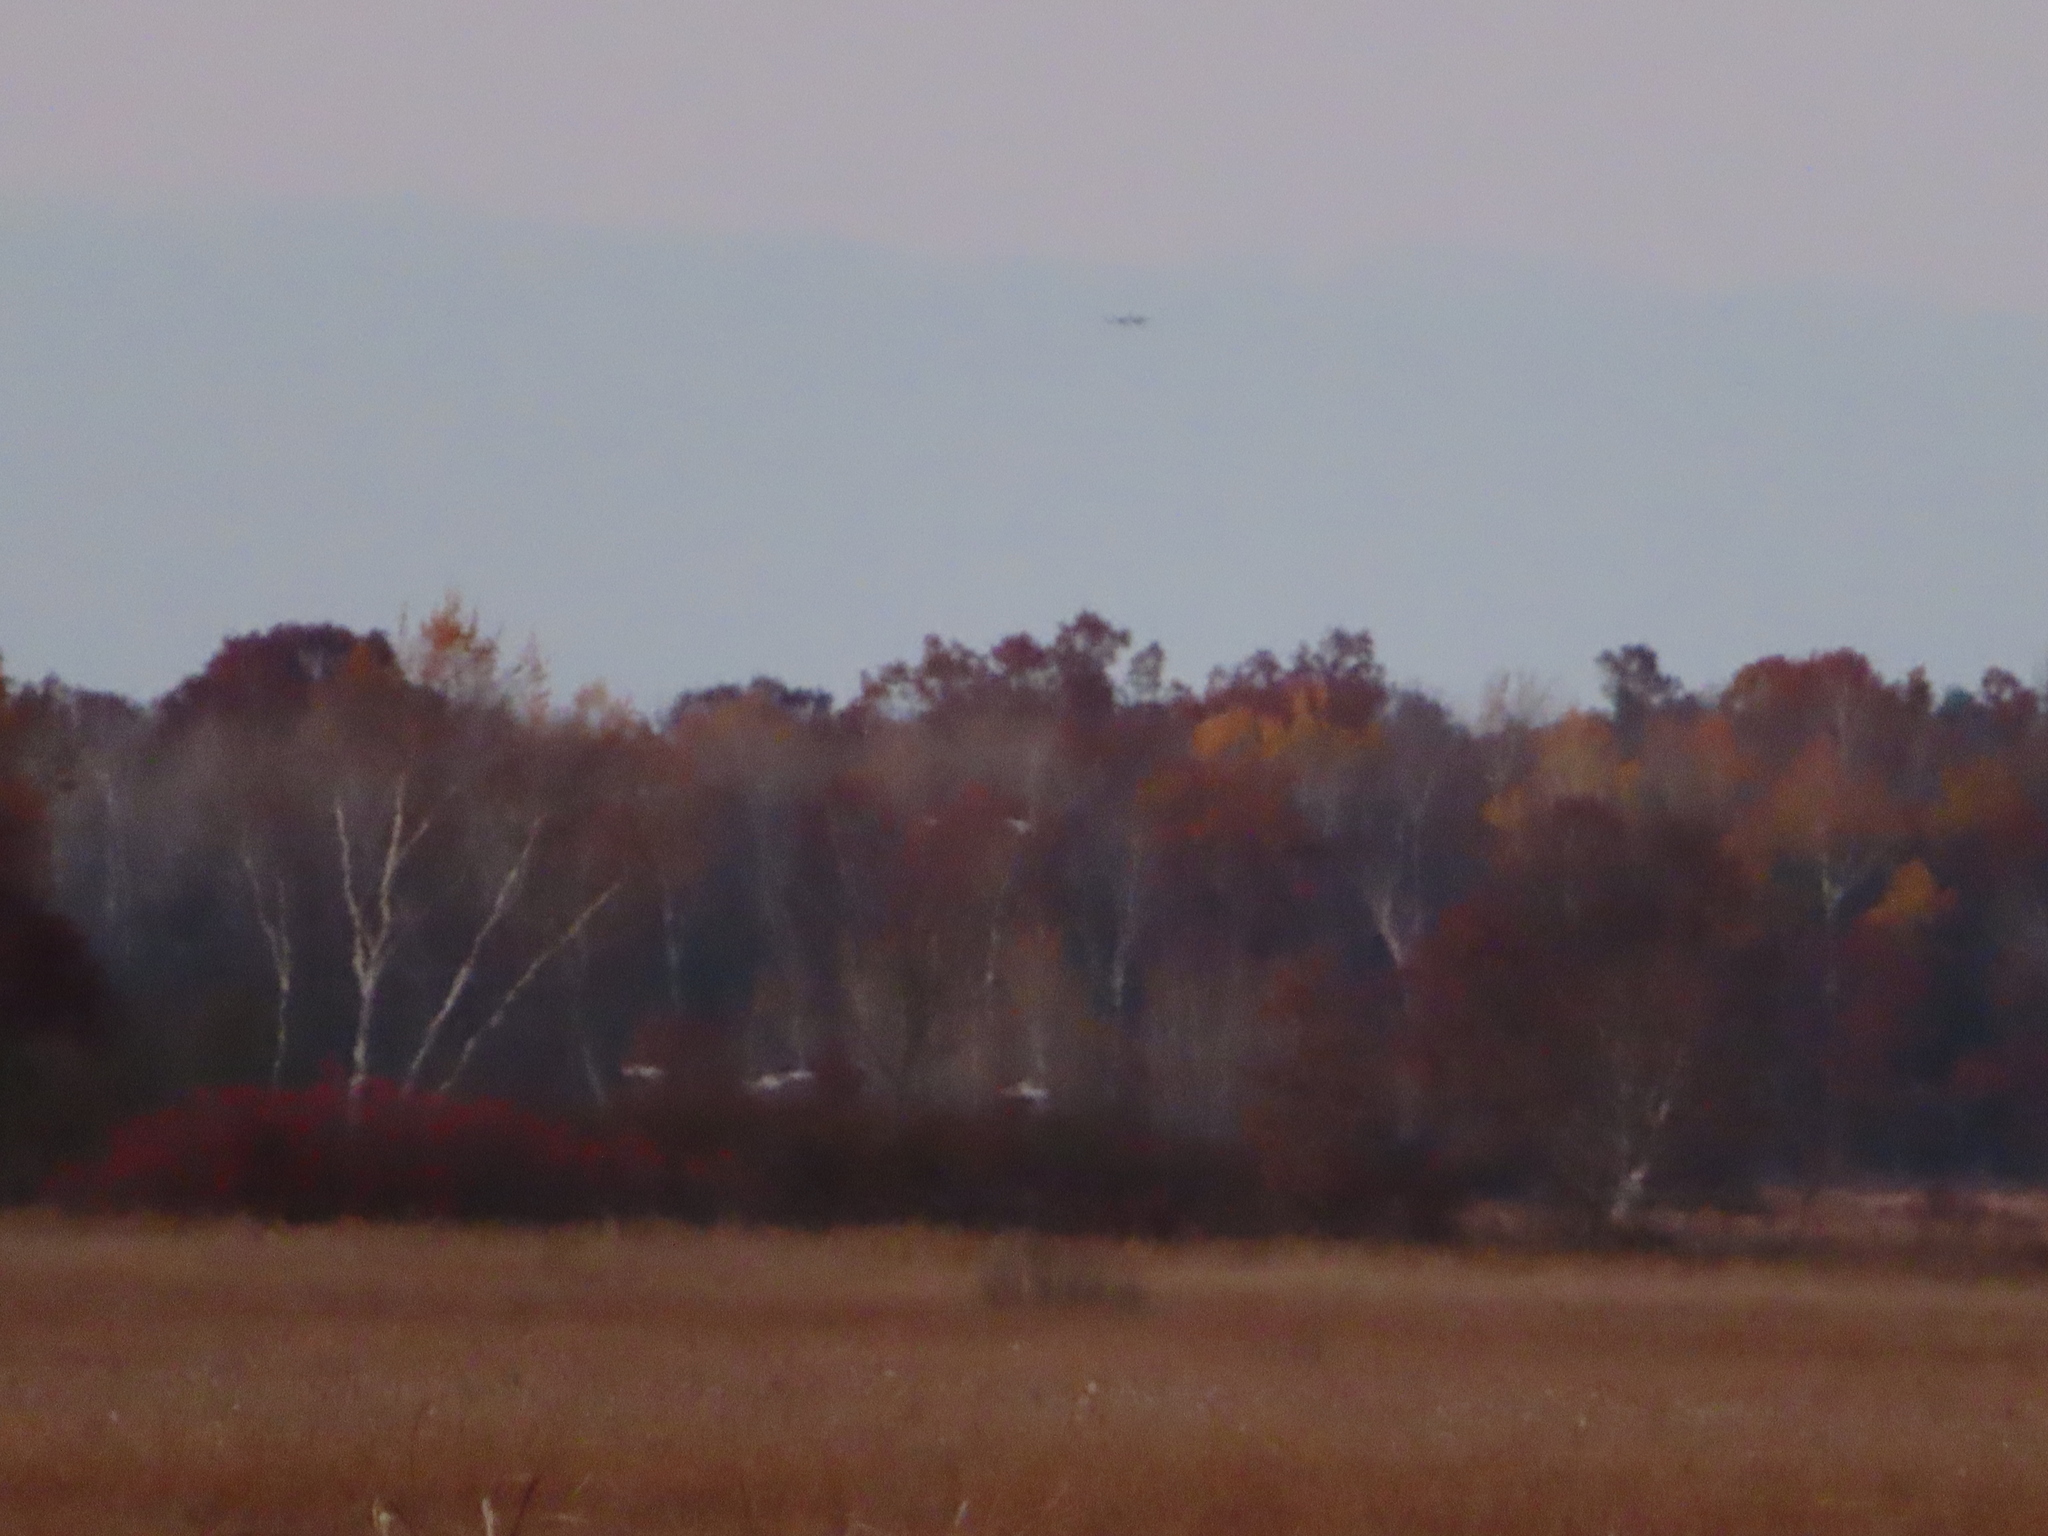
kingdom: Animalia
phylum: Chordata
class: Aves
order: Gruiformes
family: Gruidae
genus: Grus
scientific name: Grus canadensis
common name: Sandhill crane
